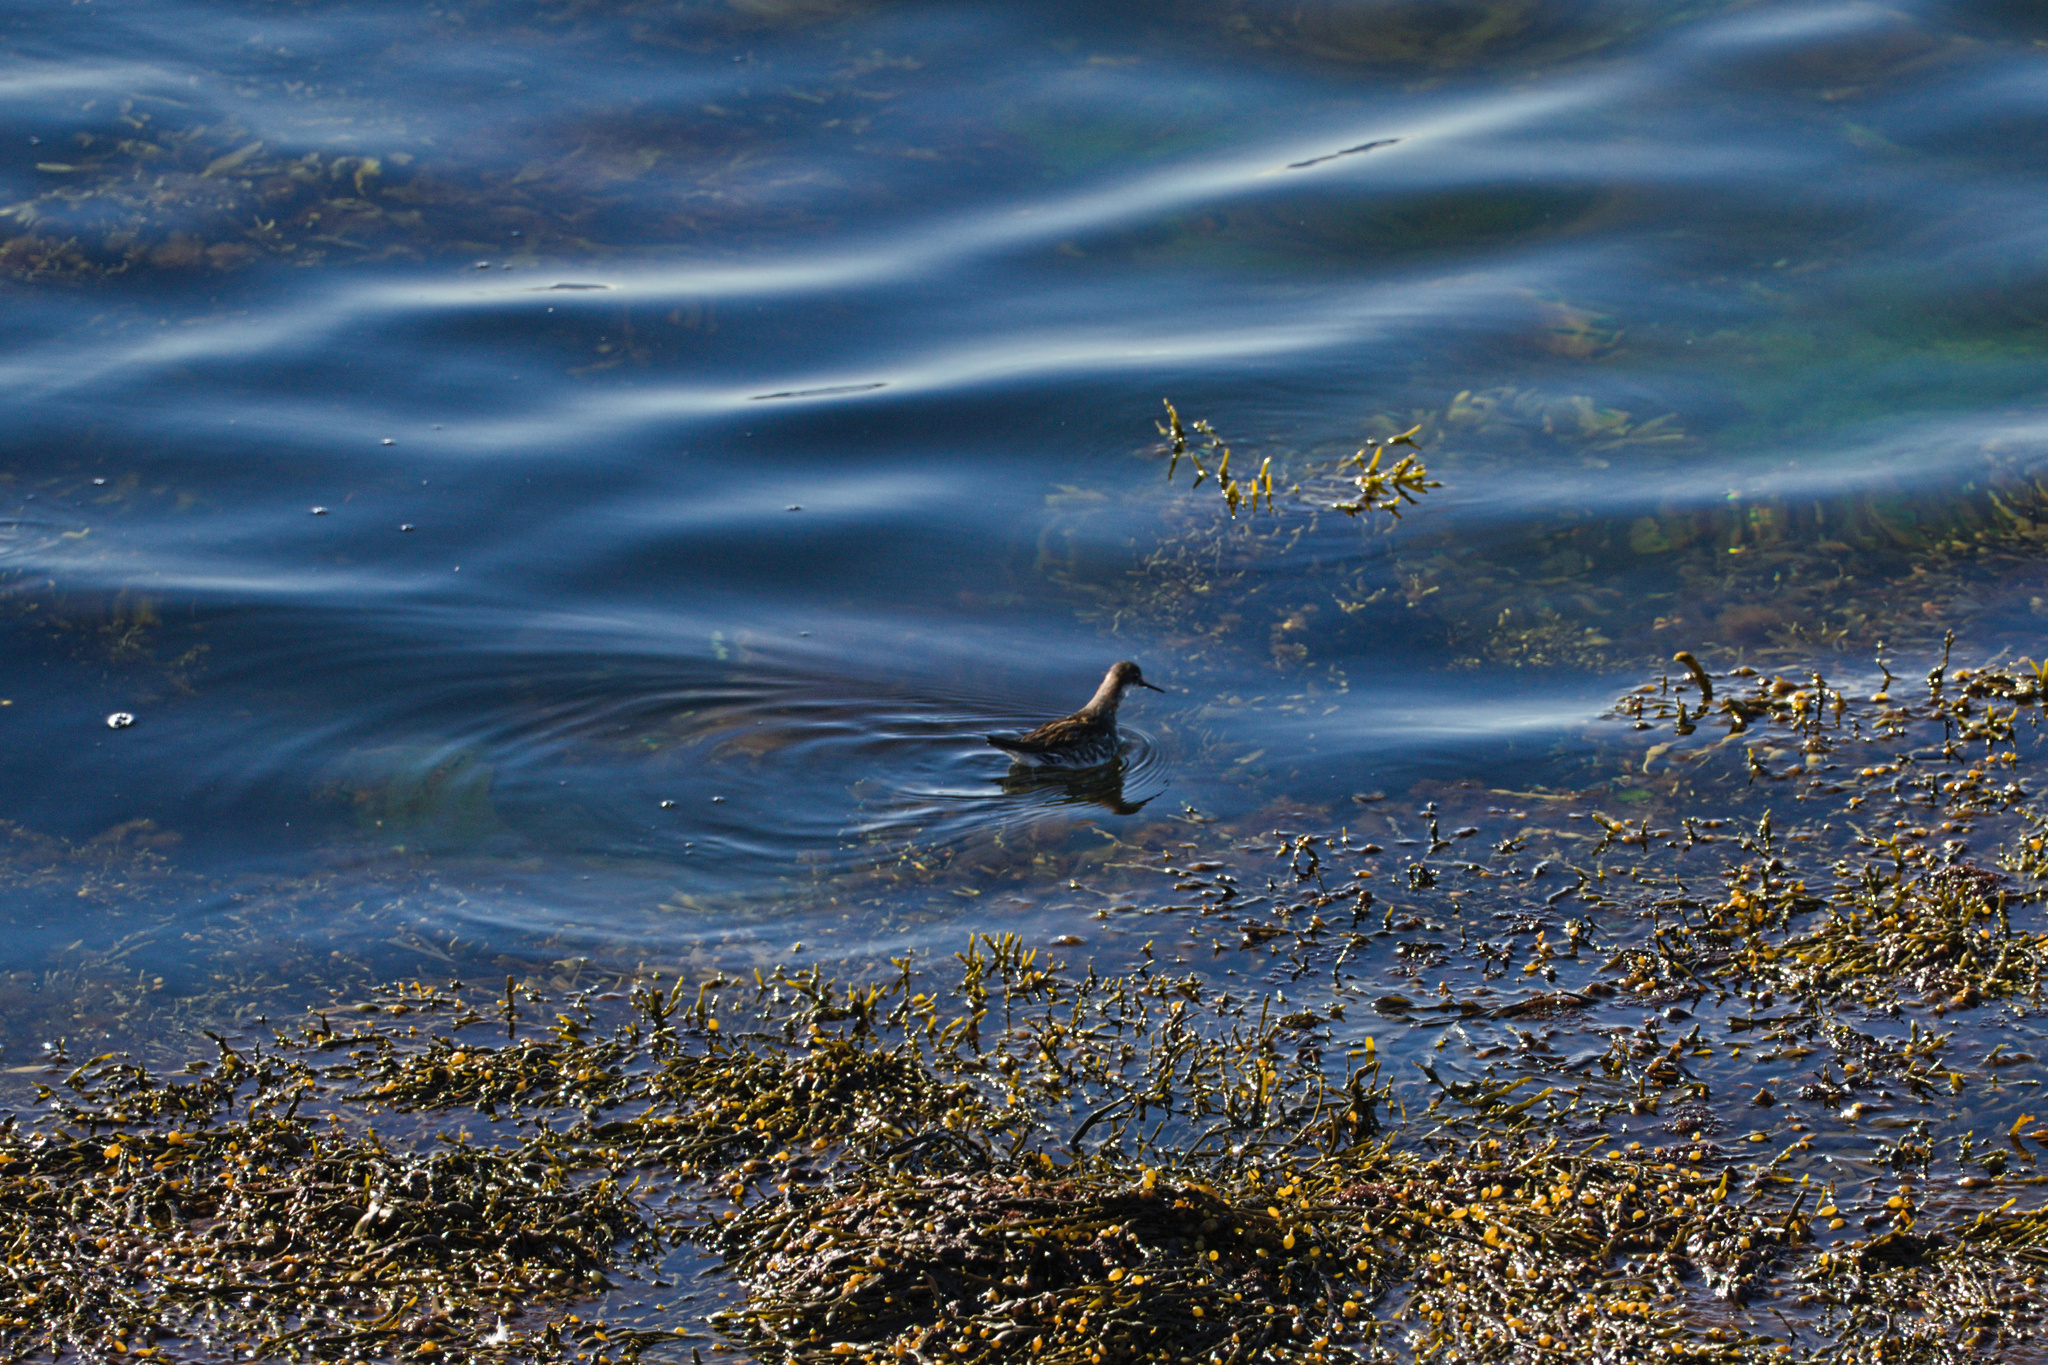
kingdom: Animalia
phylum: Chordata
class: Aves
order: Charadriiformes
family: Scolopacidae
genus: Phalaropus
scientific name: Phalaropus lobatus
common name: Red-necked phalarope
